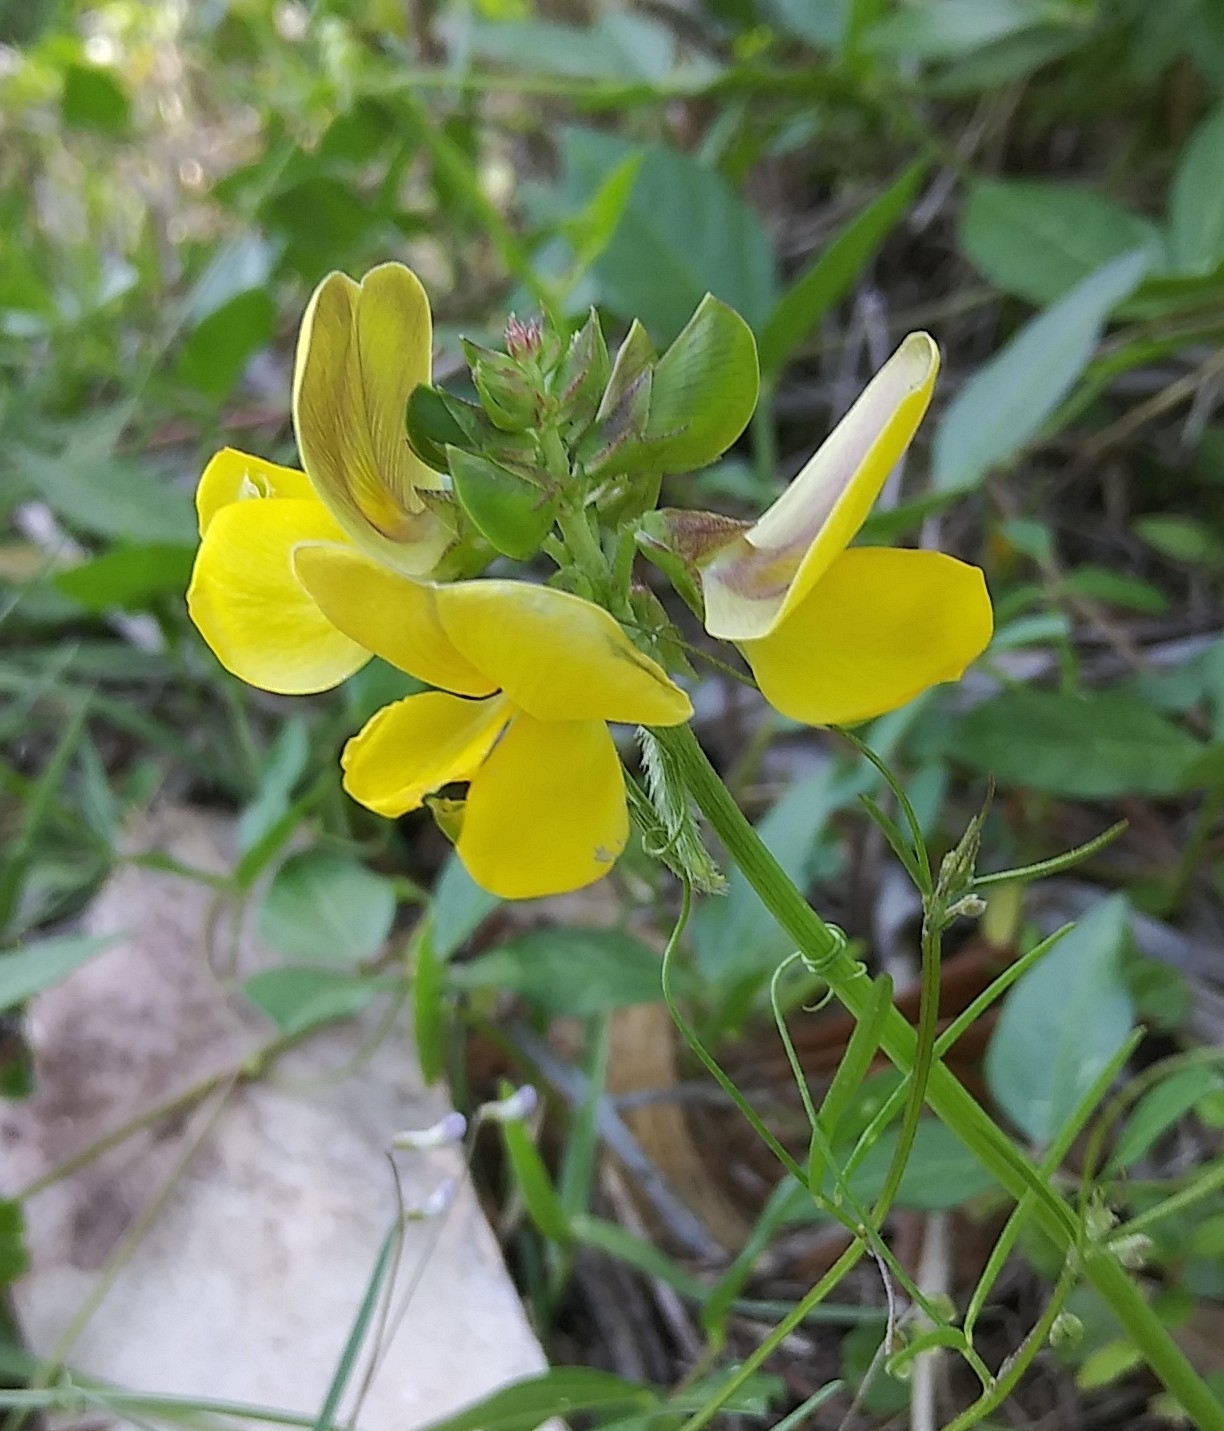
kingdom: Plantae
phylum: Tracheophyta
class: Magnoliopsida
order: Fabales
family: Fabaceae
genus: Vigna
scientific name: Vigna luteola
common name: Hairypod cowpea
